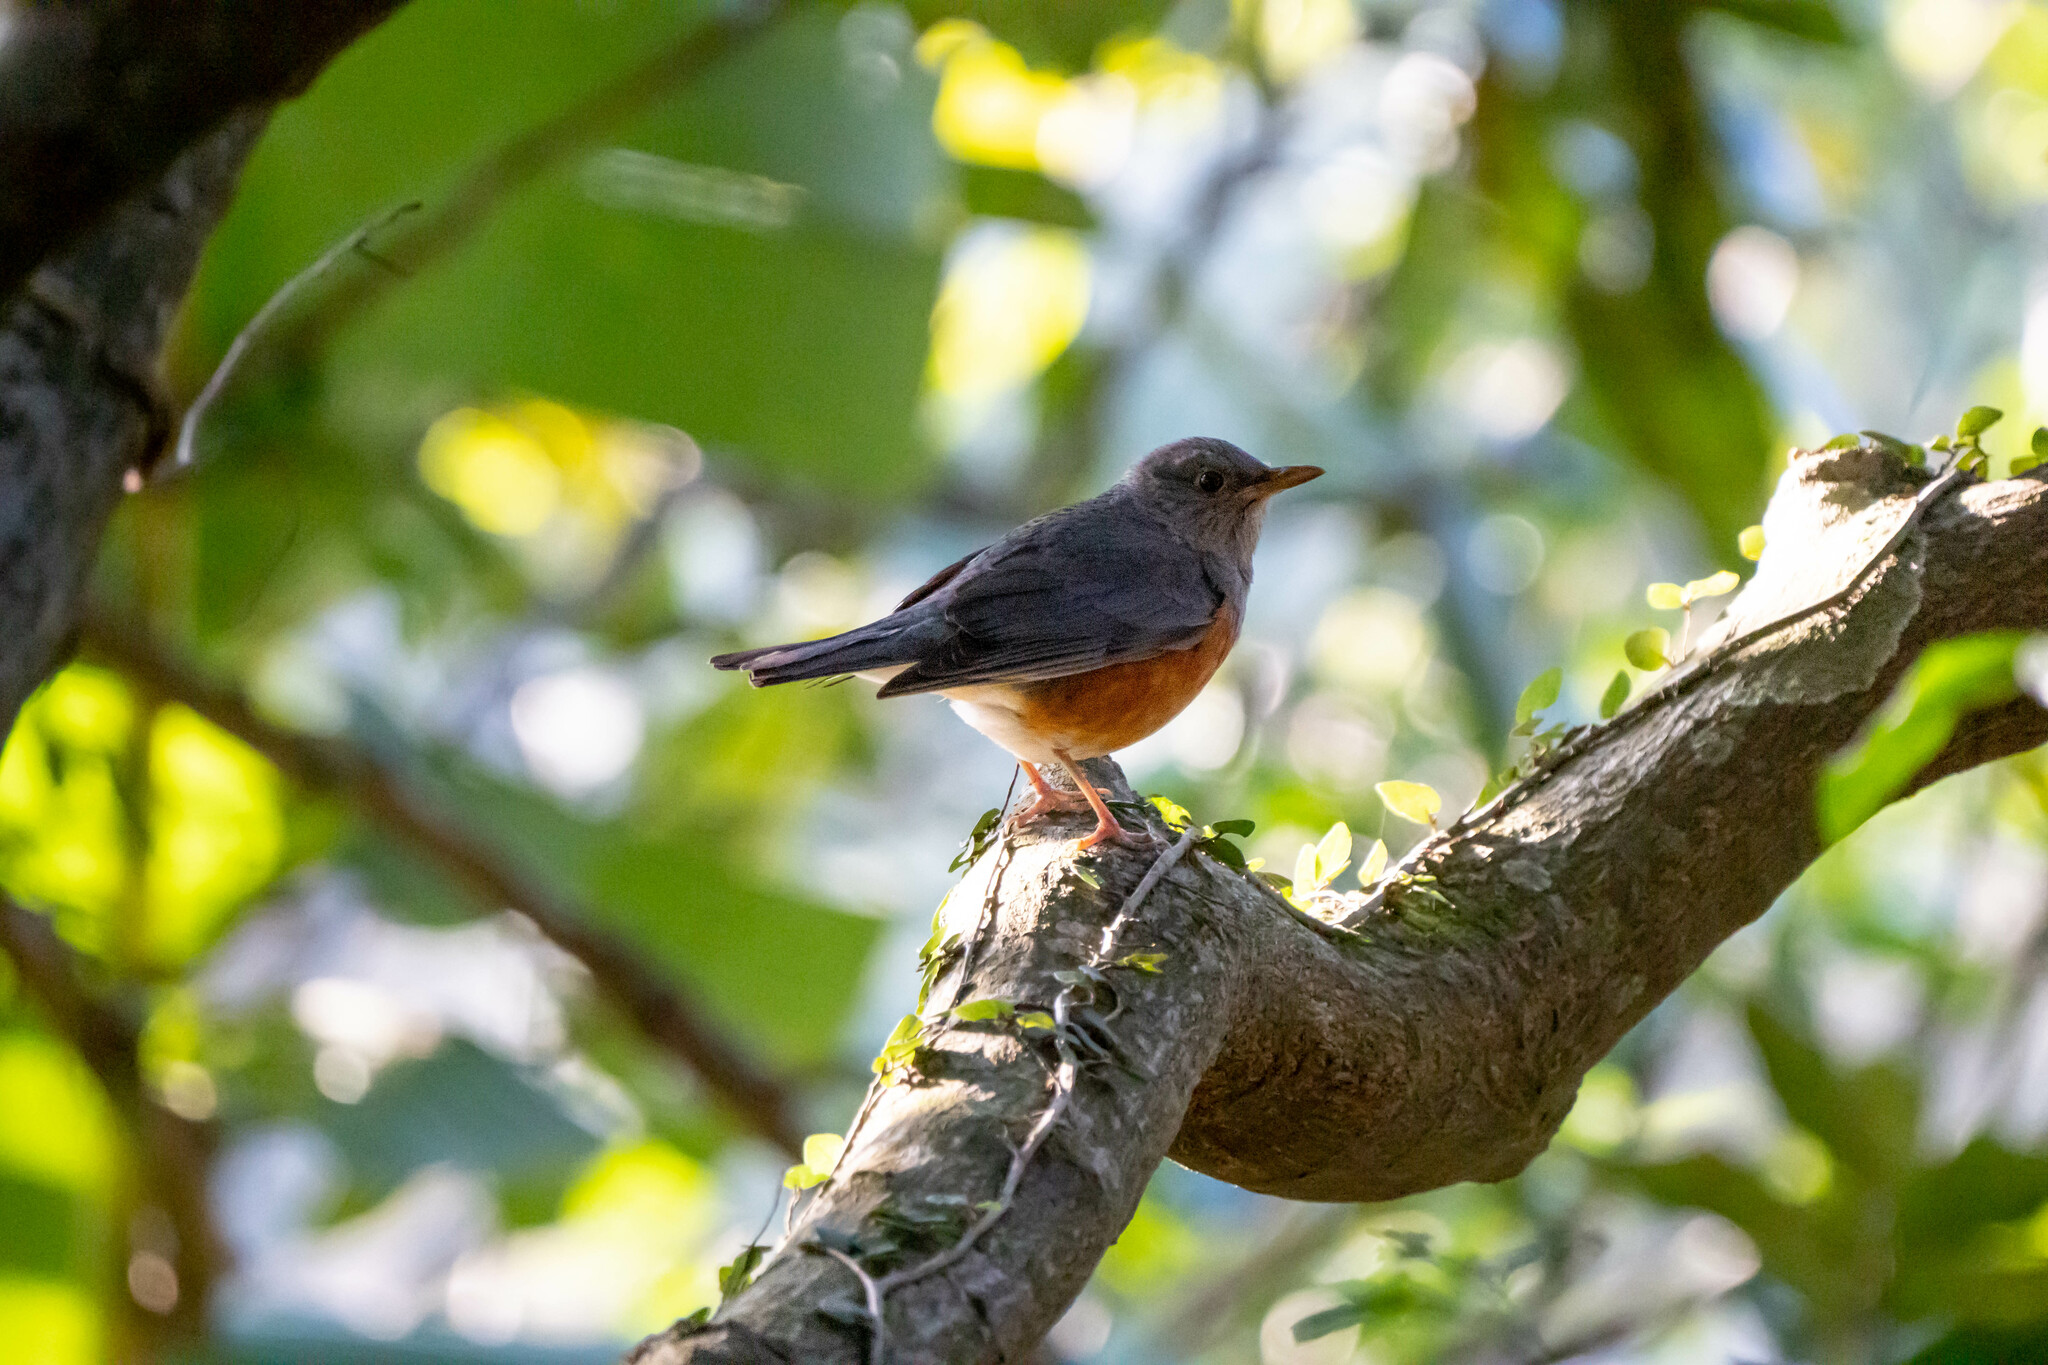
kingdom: Animalia
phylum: Chordata
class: Aves
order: Passeriformes
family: Turdidae
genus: Turdus
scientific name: Turdus hortulorum
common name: Grey-backed thrush
